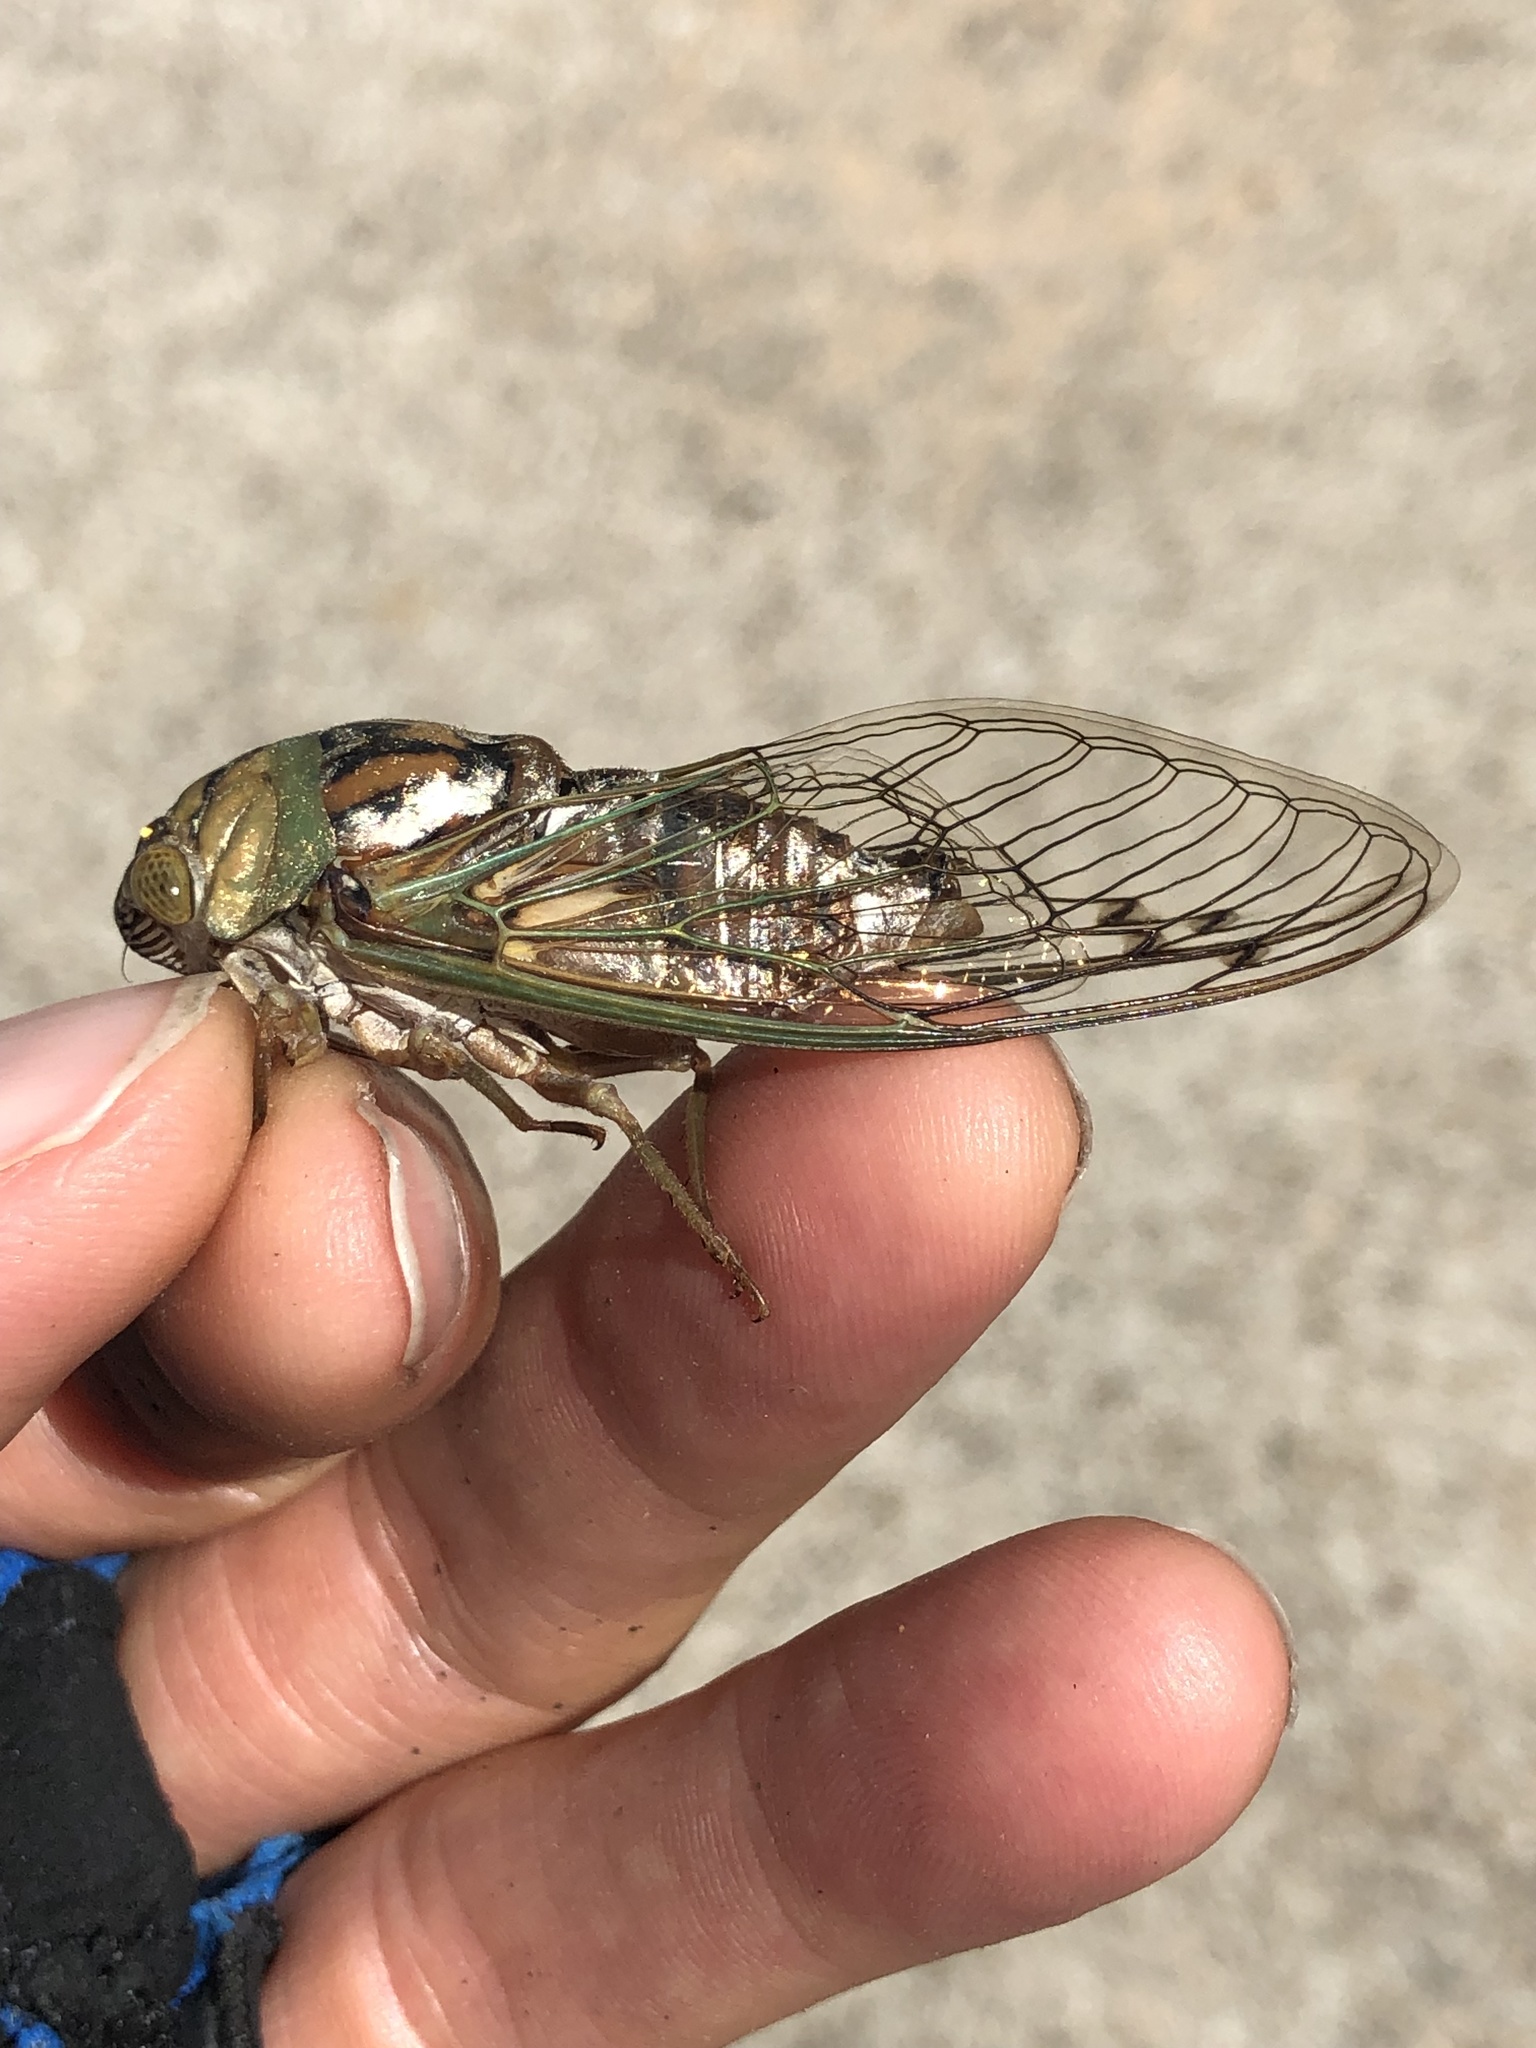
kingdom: Animalia
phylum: Arthropoda
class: Insecta
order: Hemiptera
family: Cicadidae
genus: Megatibicen
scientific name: Megatibicen resh
